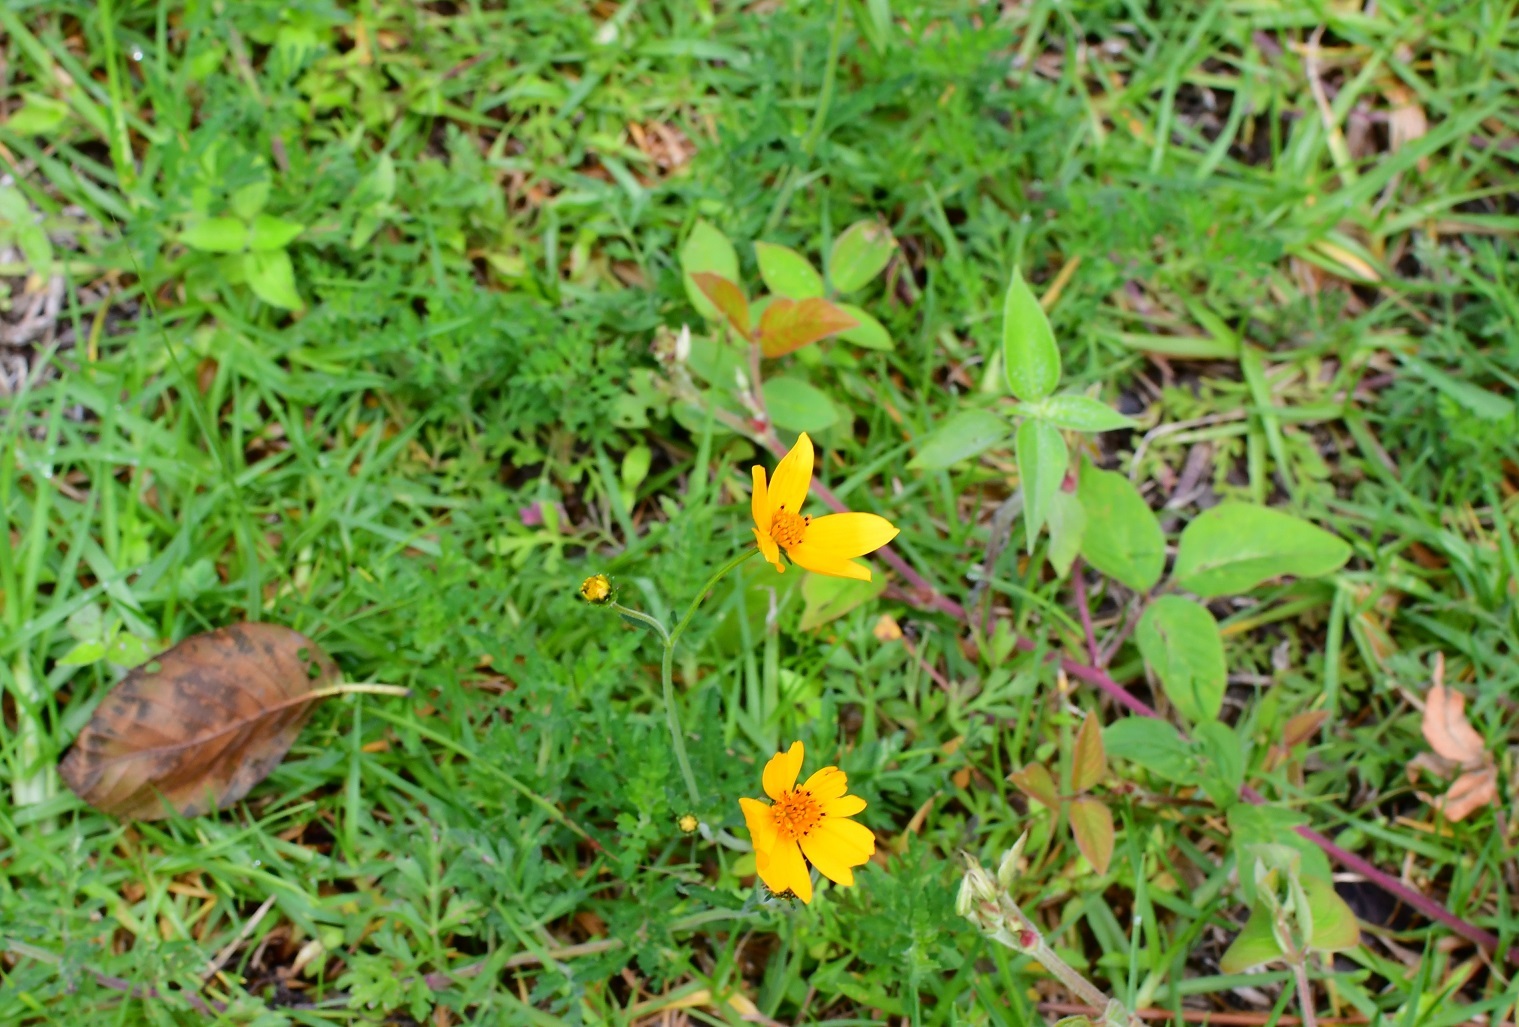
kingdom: Plantae
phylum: Tracheophyta
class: Magnoliopsida
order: Asterales
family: Asteraceae
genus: Bidens
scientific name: Bidens triplinervia
